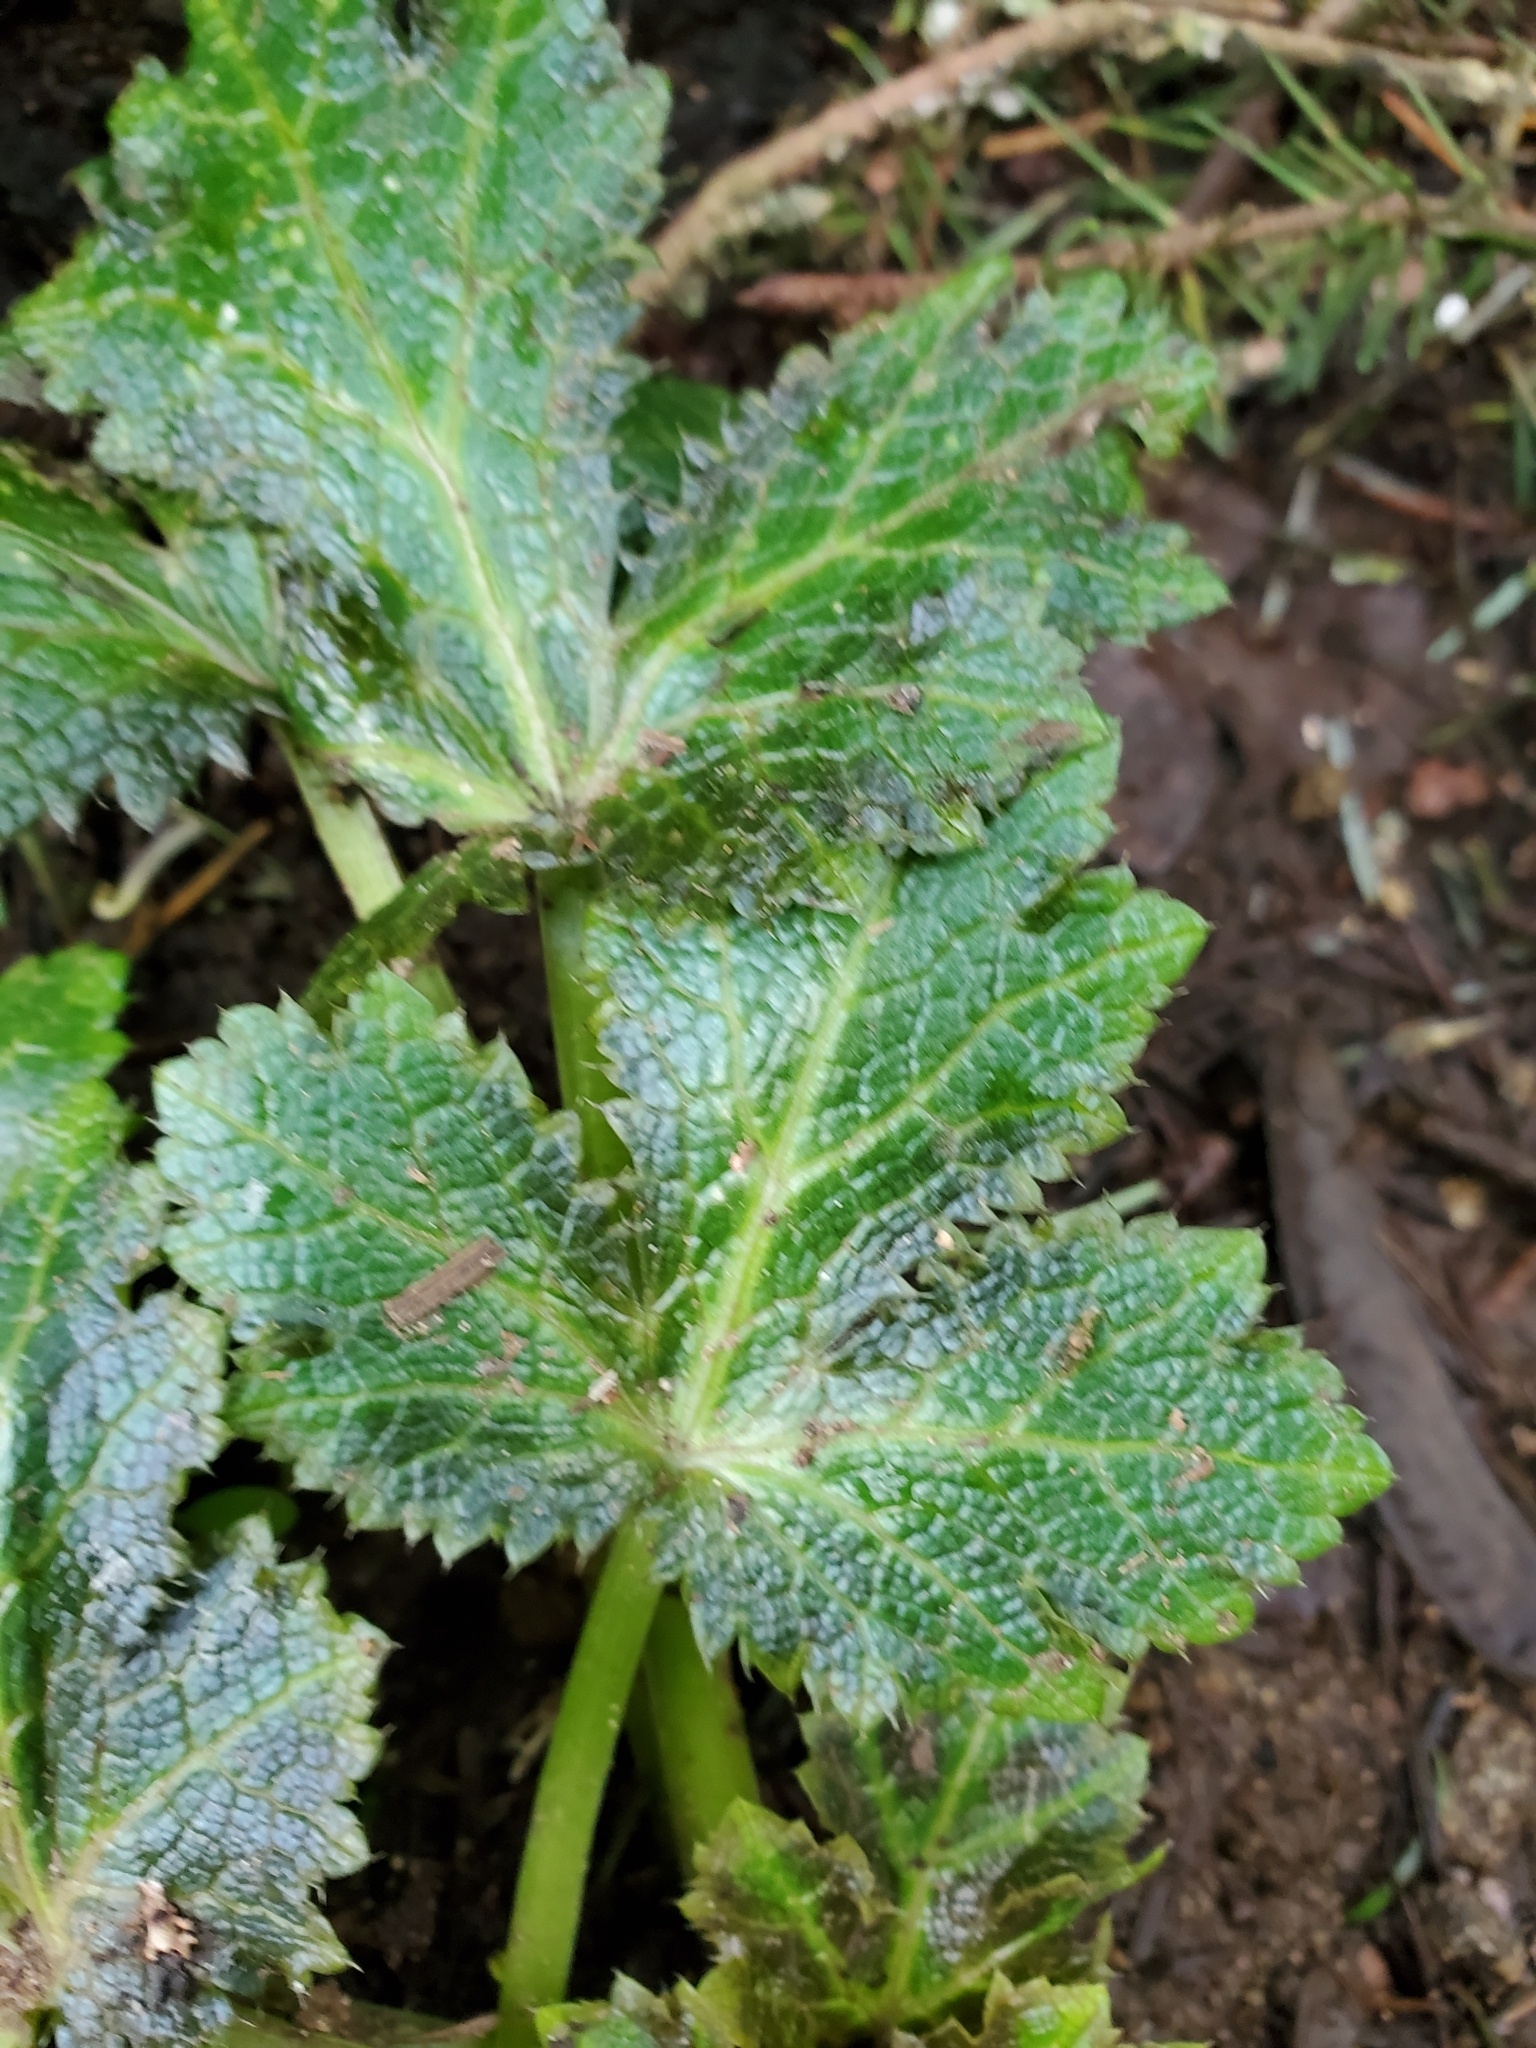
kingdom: Plantae
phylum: Tracheophyta
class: Magnoliopsida
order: Apiales
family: Apiaceae
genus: Sanicula
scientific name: Sanicula crassicaulis
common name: Western snakeroot
